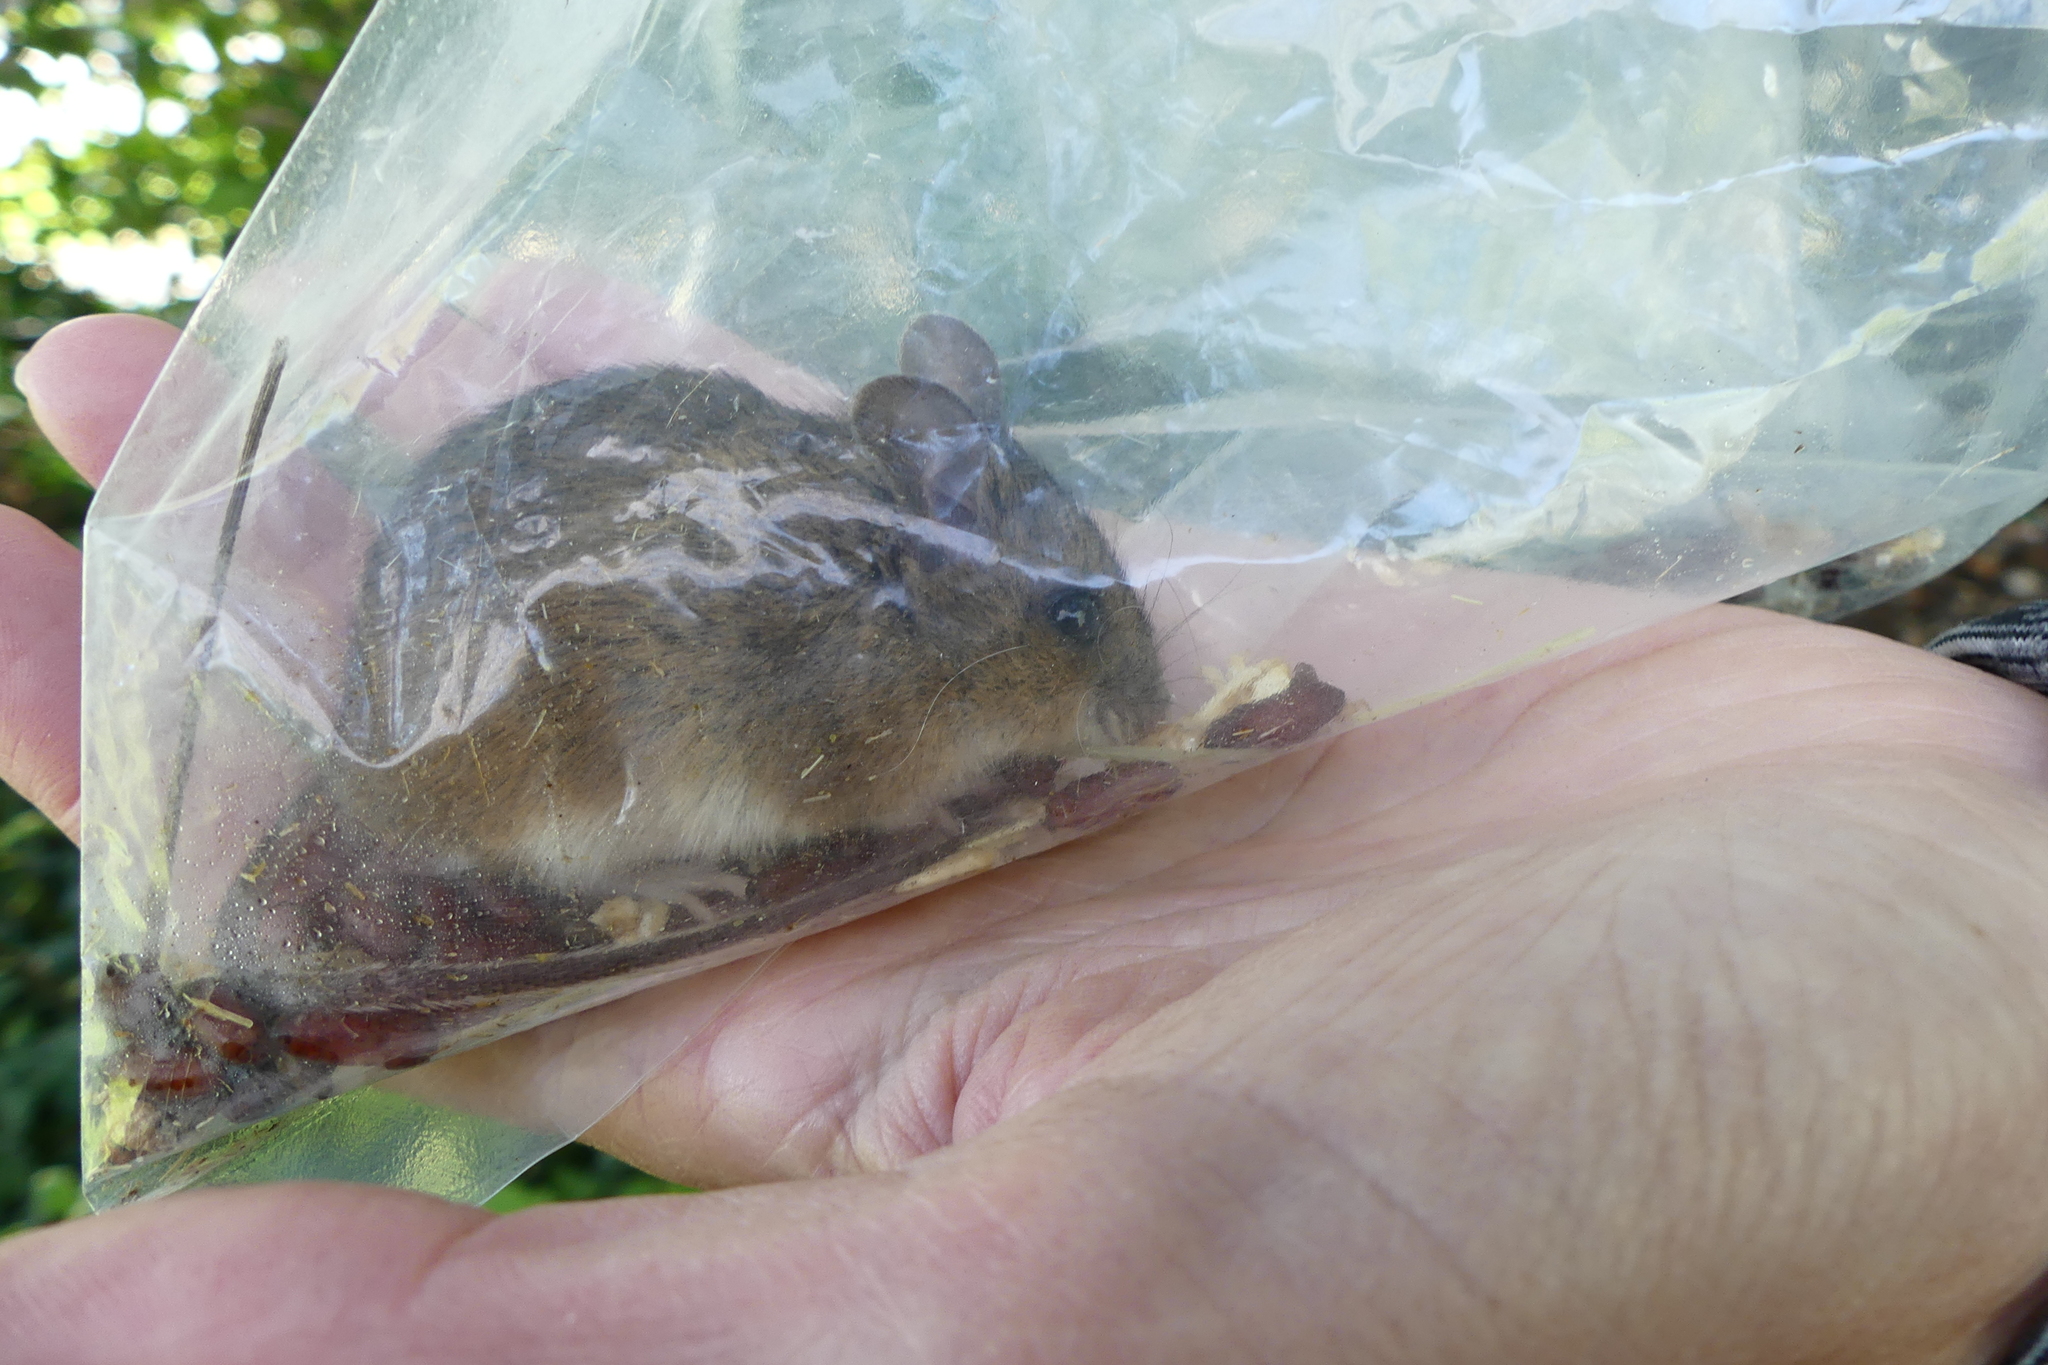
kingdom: Animalia
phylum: Chordata
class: Mammalia
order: Rodentia
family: Muridae
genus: Apodemus
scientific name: Apodemus sylvaticus
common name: Wood mouse
